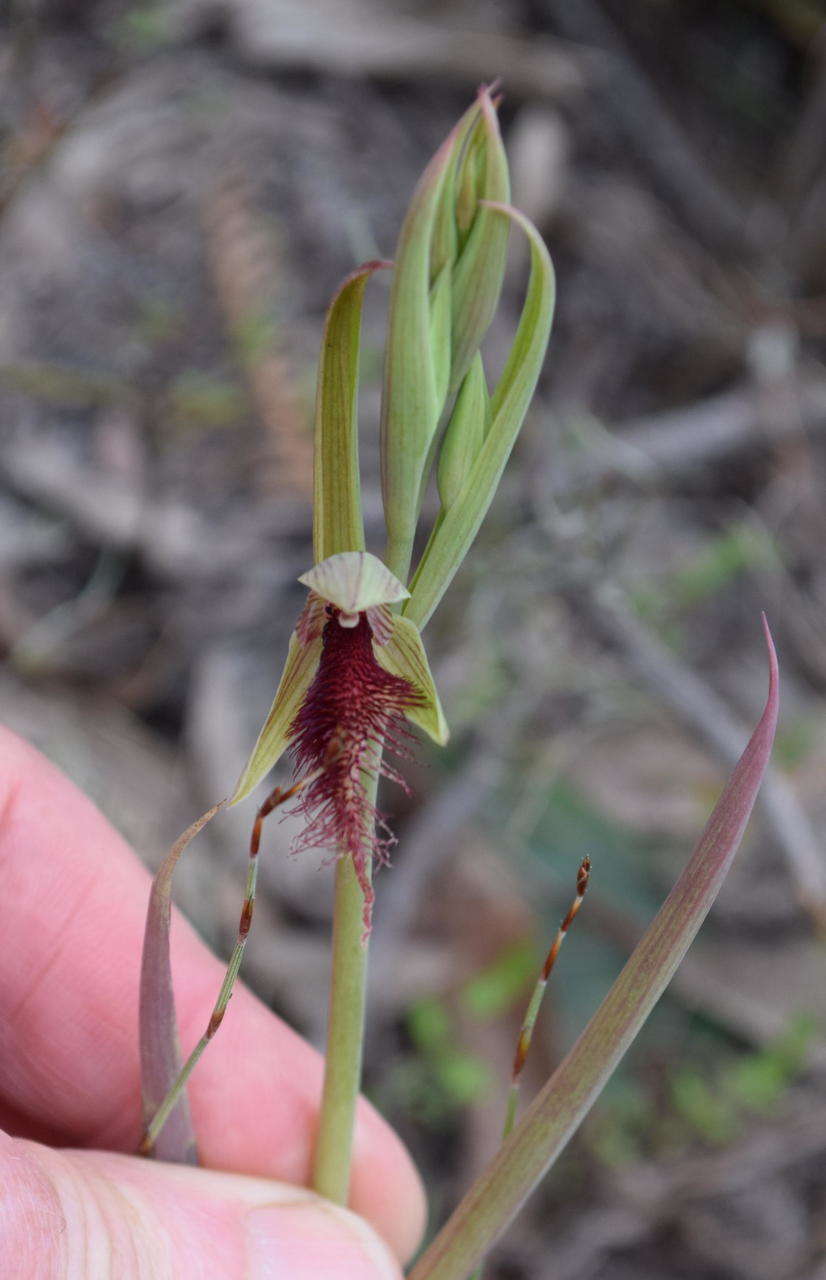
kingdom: Plantae
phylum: Tracheophyta
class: Liliopsida
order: Asparagales
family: Orchidaceae
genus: Calochilus
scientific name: Calochilus robertsonii
